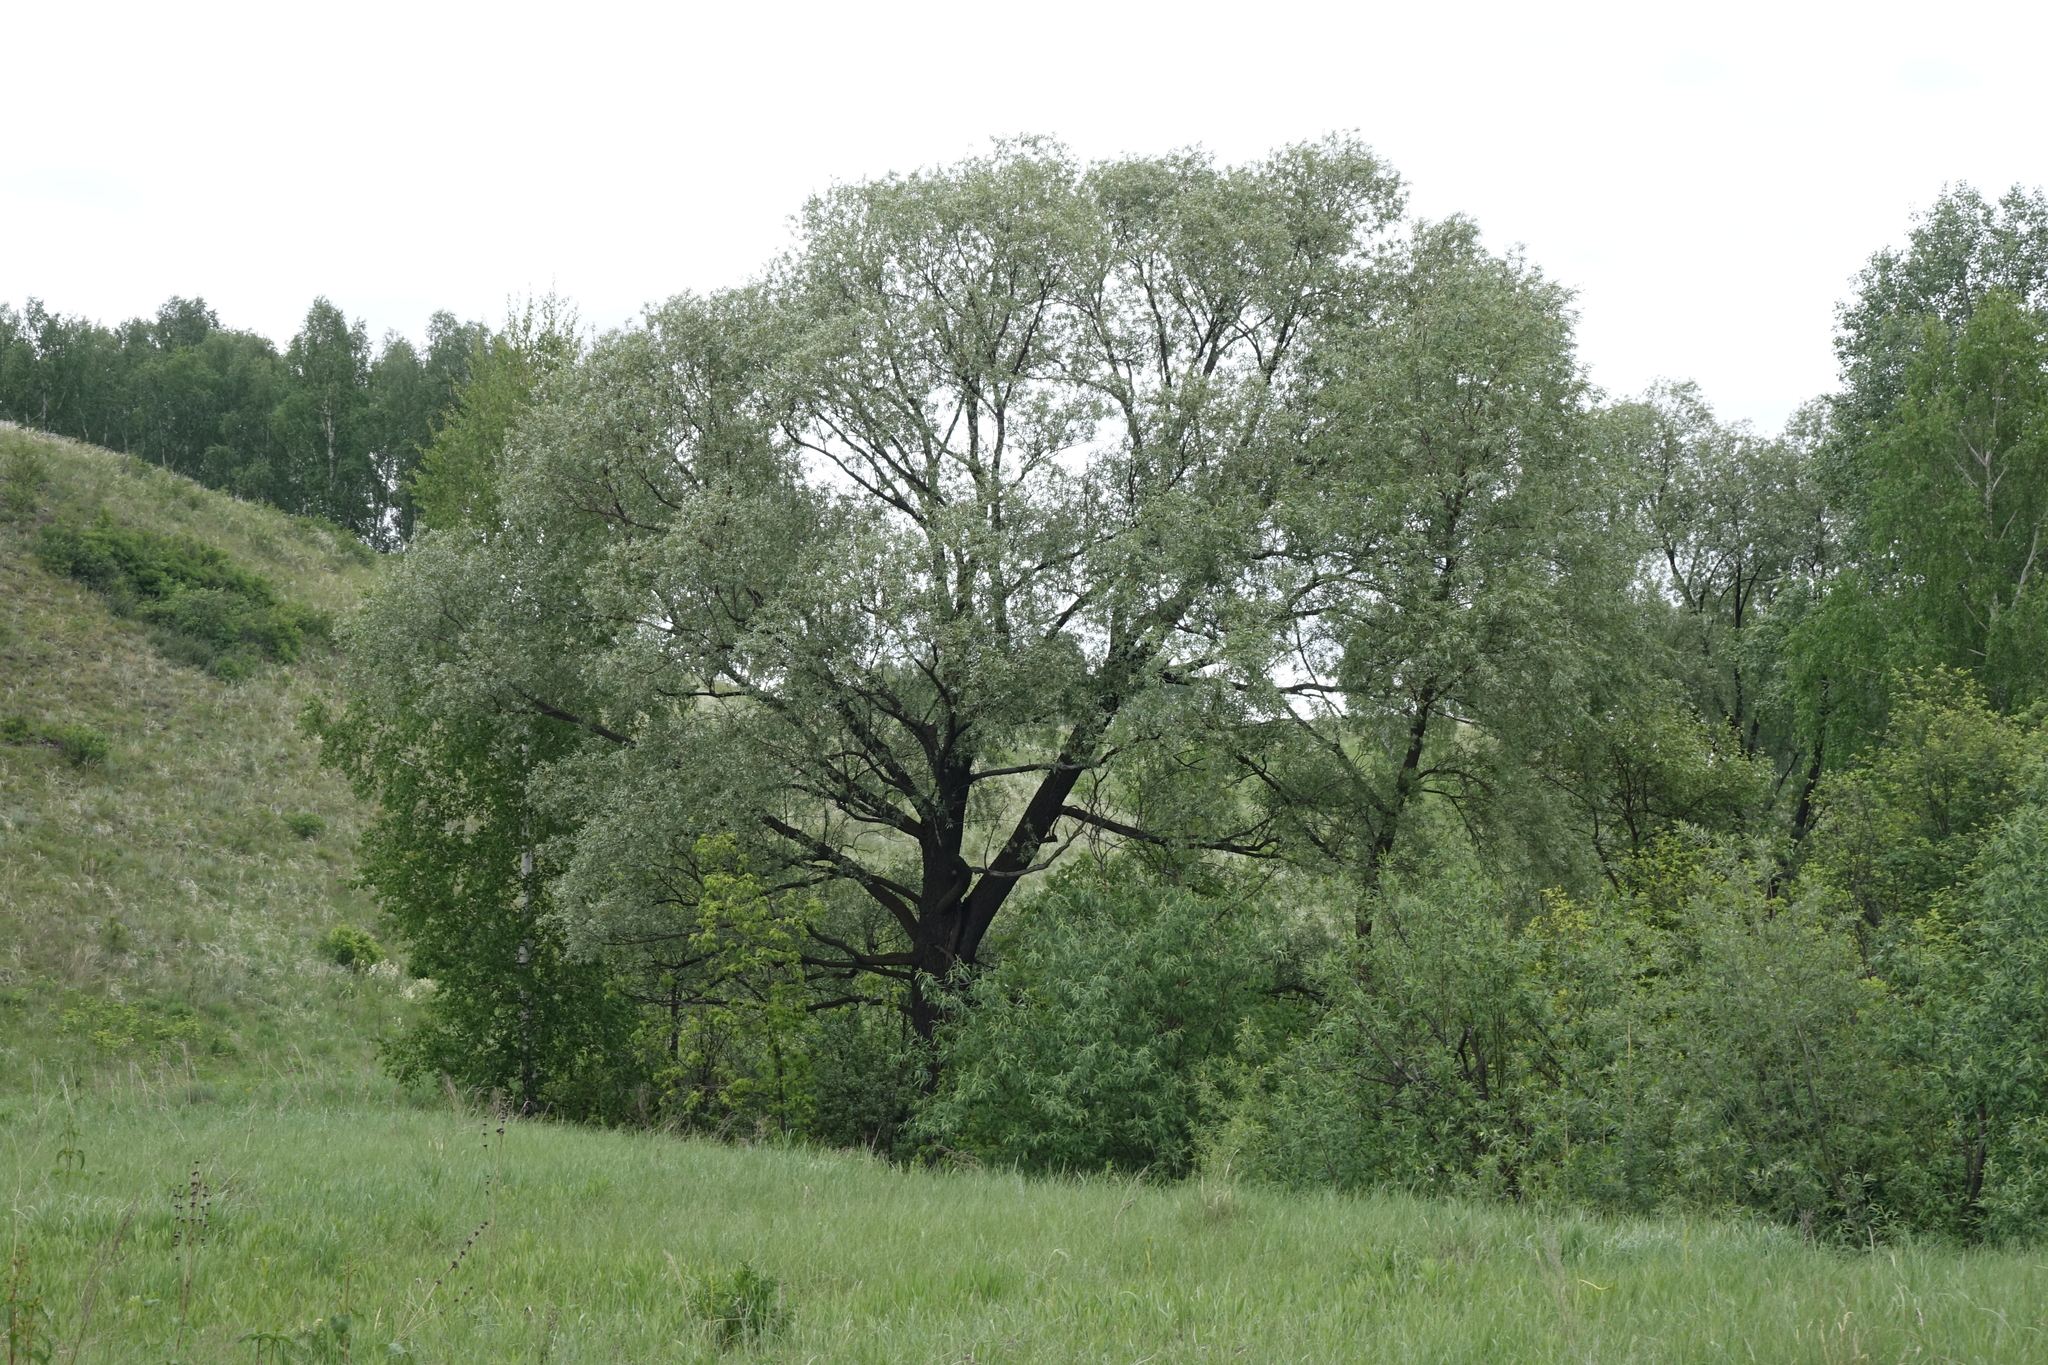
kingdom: Plantae
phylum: Tracheophyta
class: Magnoliopsida
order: Malpighiales
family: Salicaceae
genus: Salix
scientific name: Salix alba
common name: White willow
